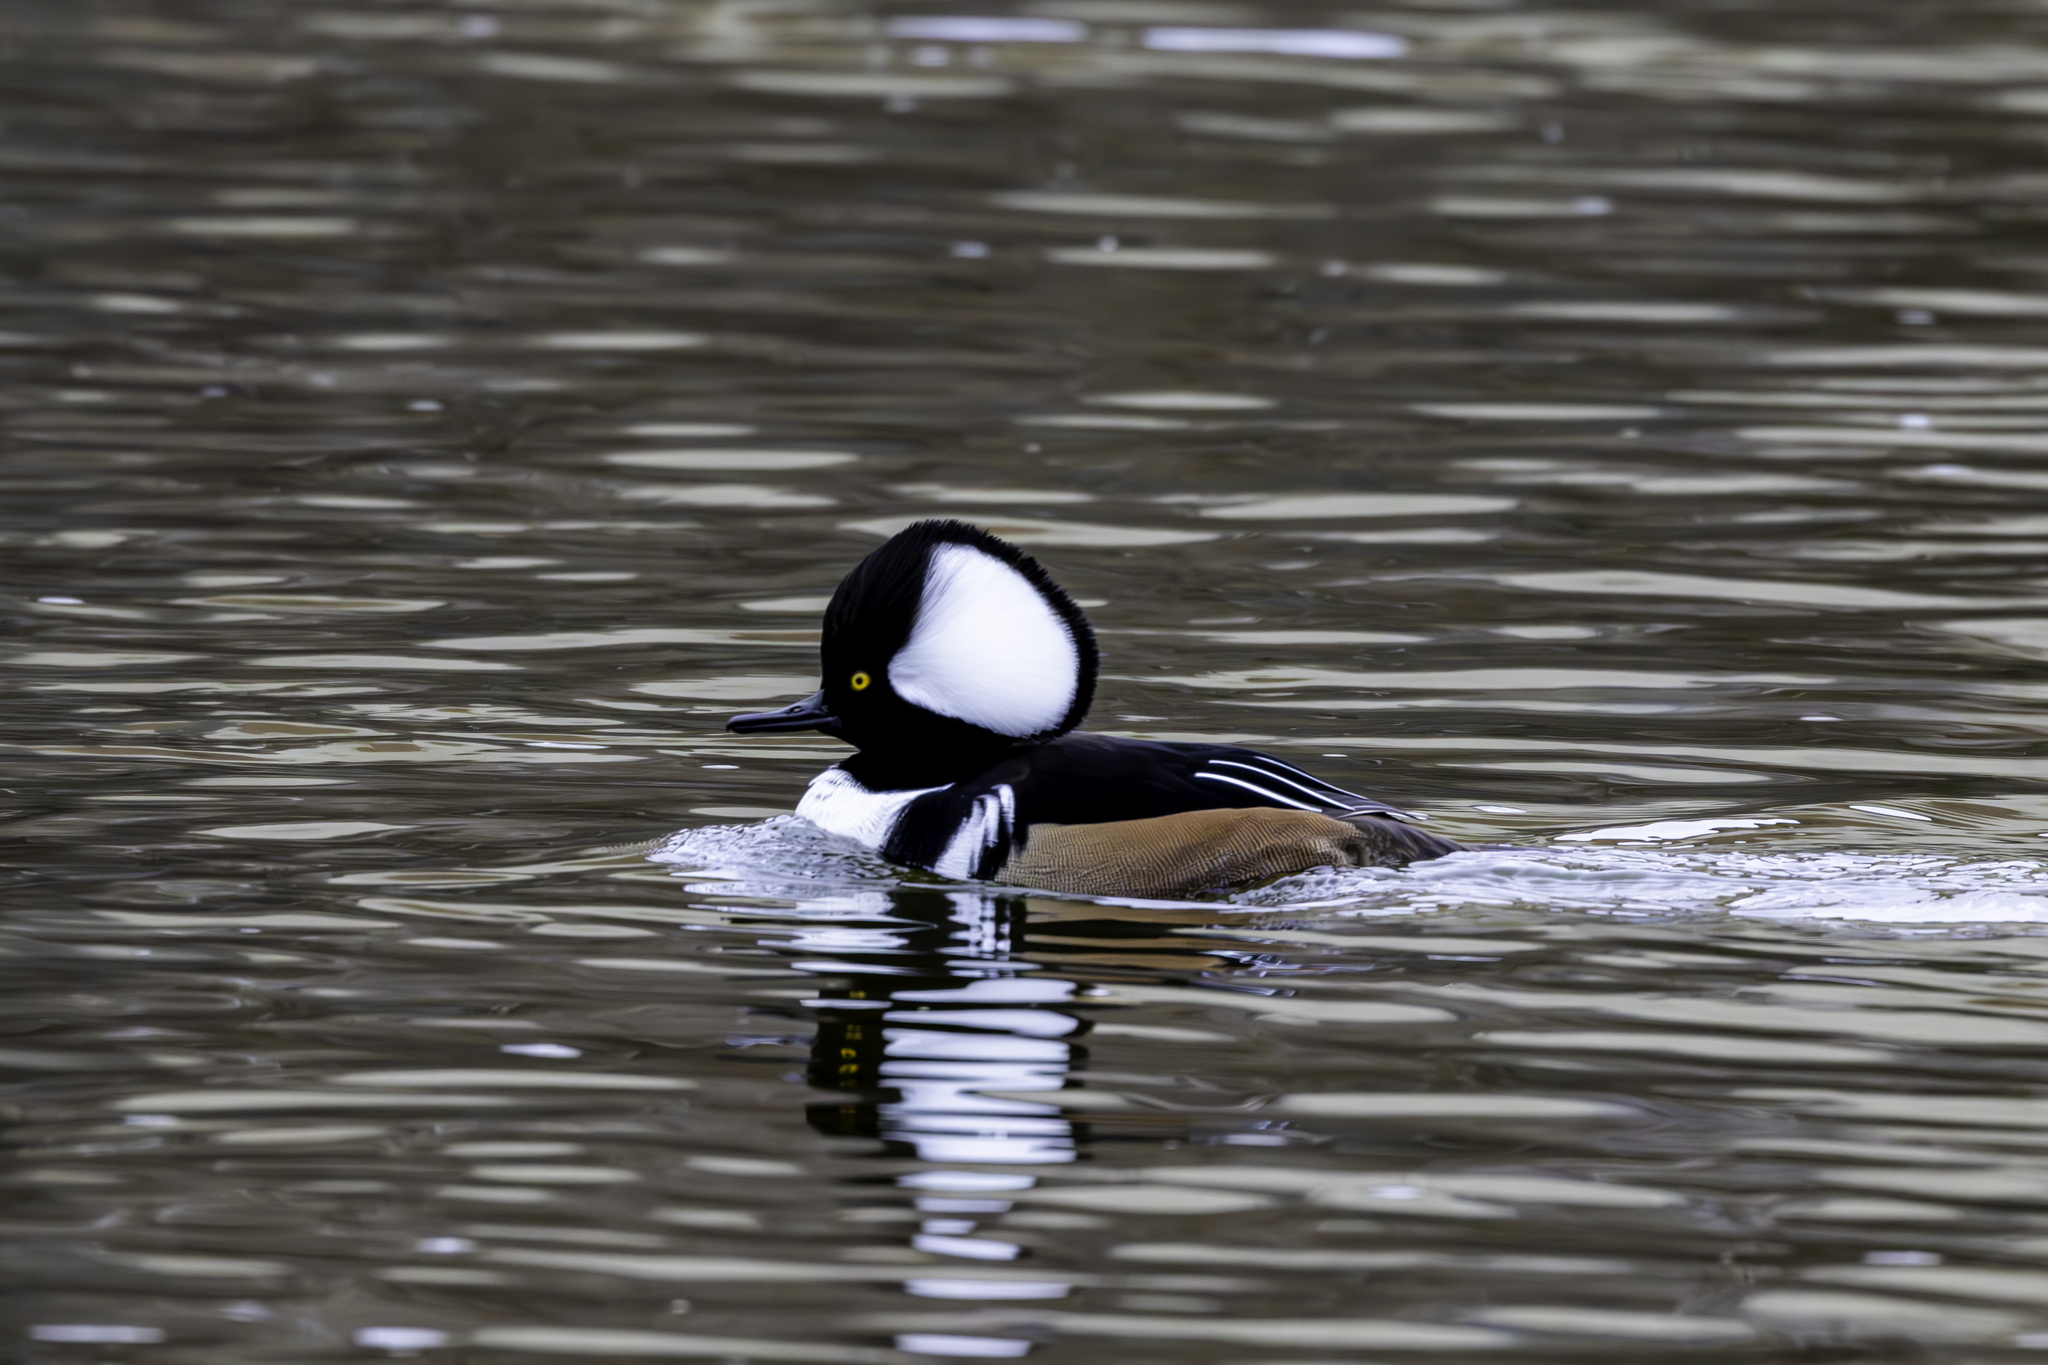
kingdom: Animalia
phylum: Chordata
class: Aves
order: Anseriformes
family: Anatidae
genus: Lophodytes
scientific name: Lophodytes cucullatus
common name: Hooded merganser
